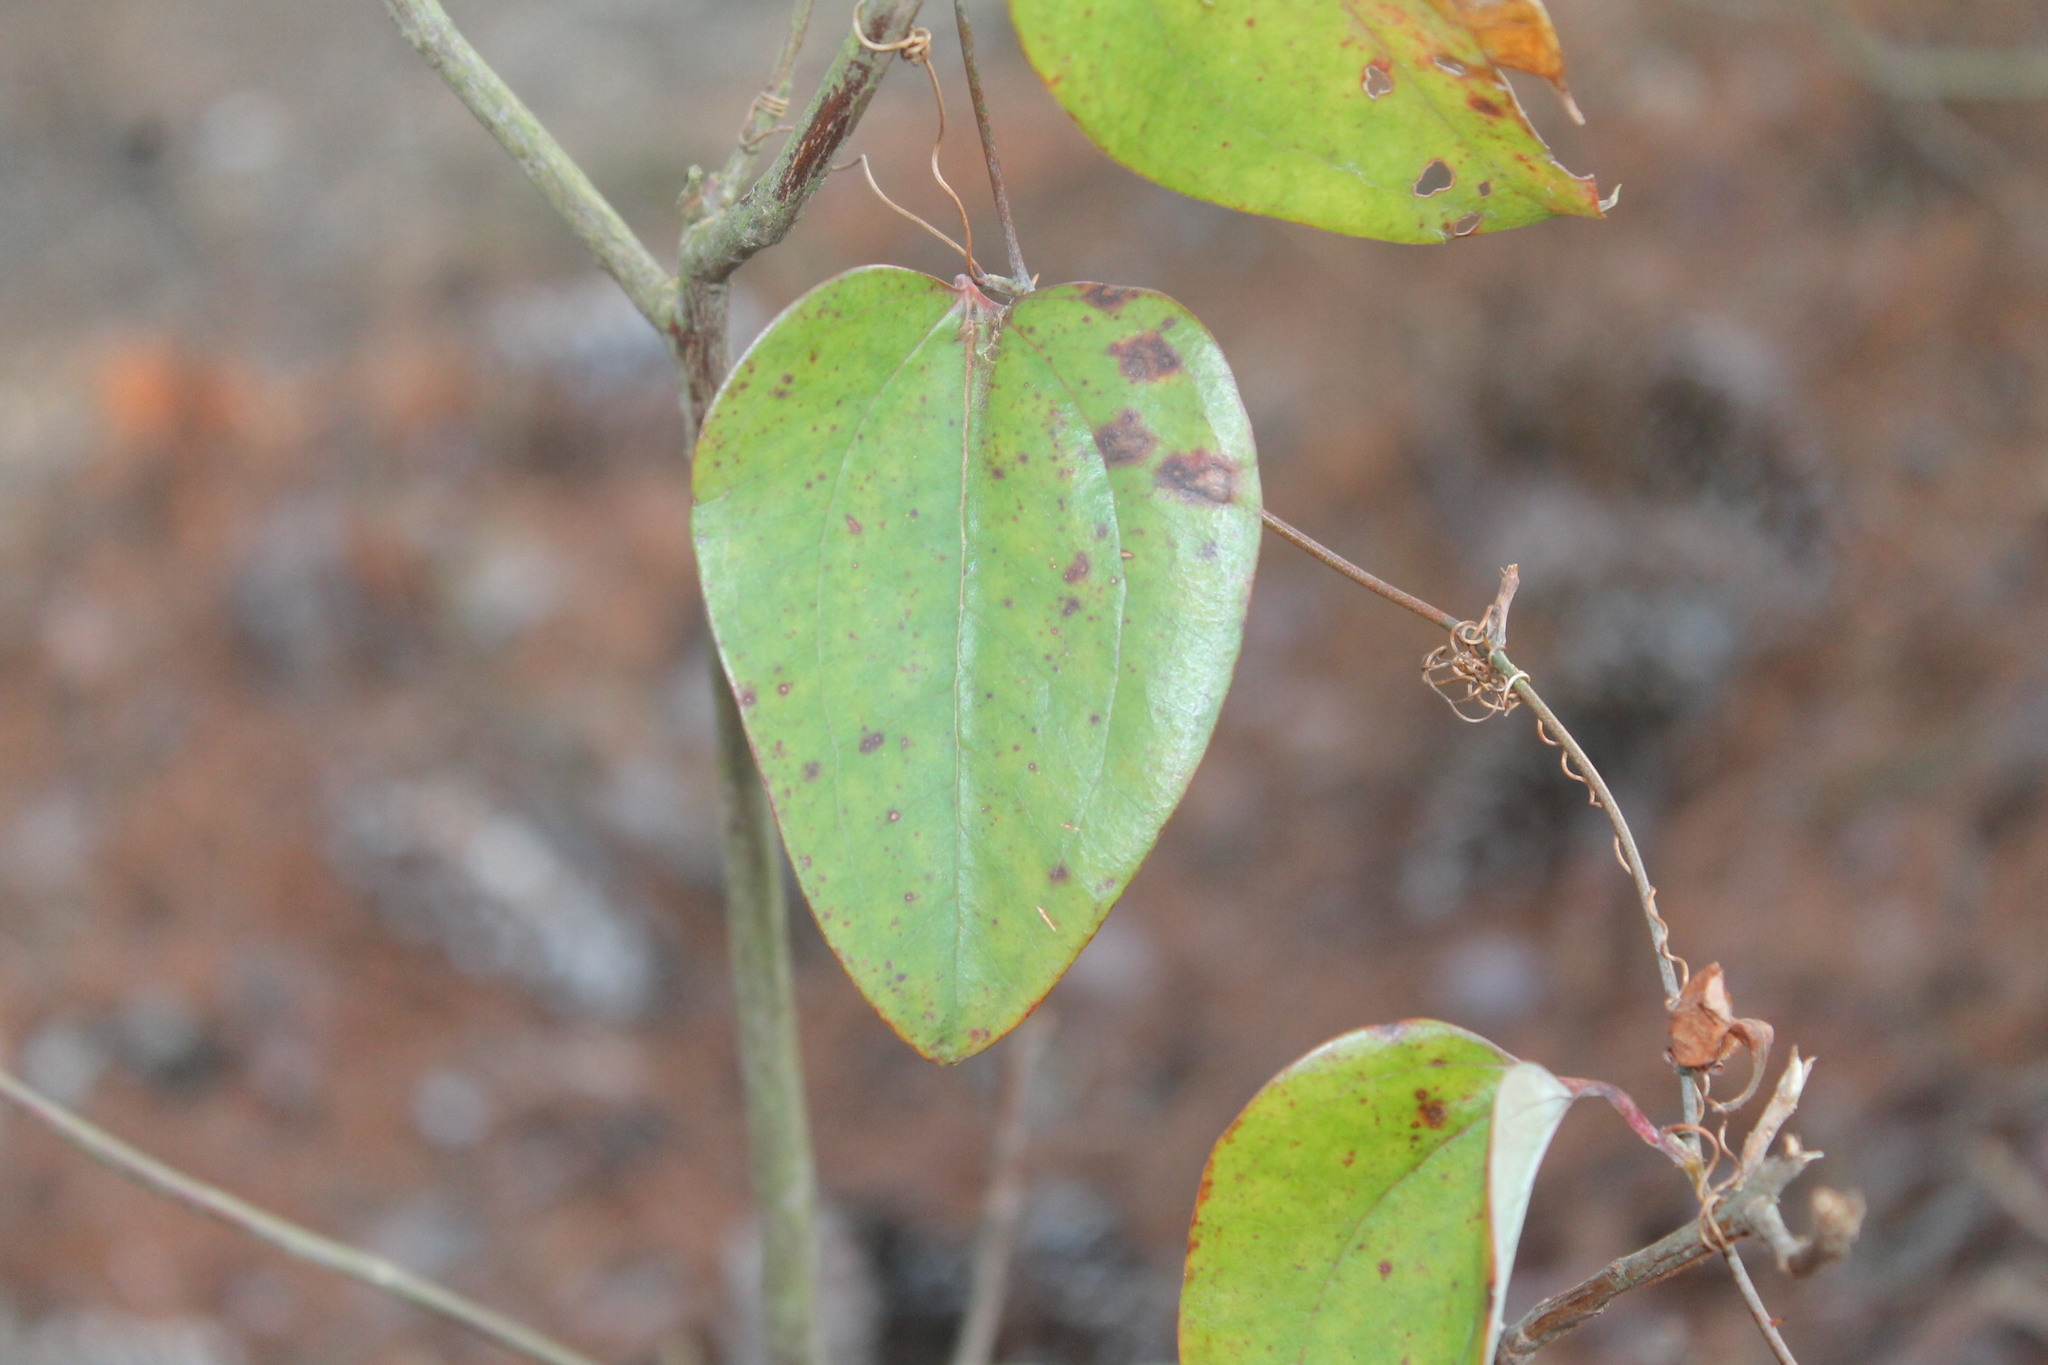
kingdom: Plantae
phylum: Tracheophyta
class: Liliopsida
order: Liliales
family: Smilacaceae
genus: Smilax
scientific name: Smilax glauca
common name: Cat greenbrier
